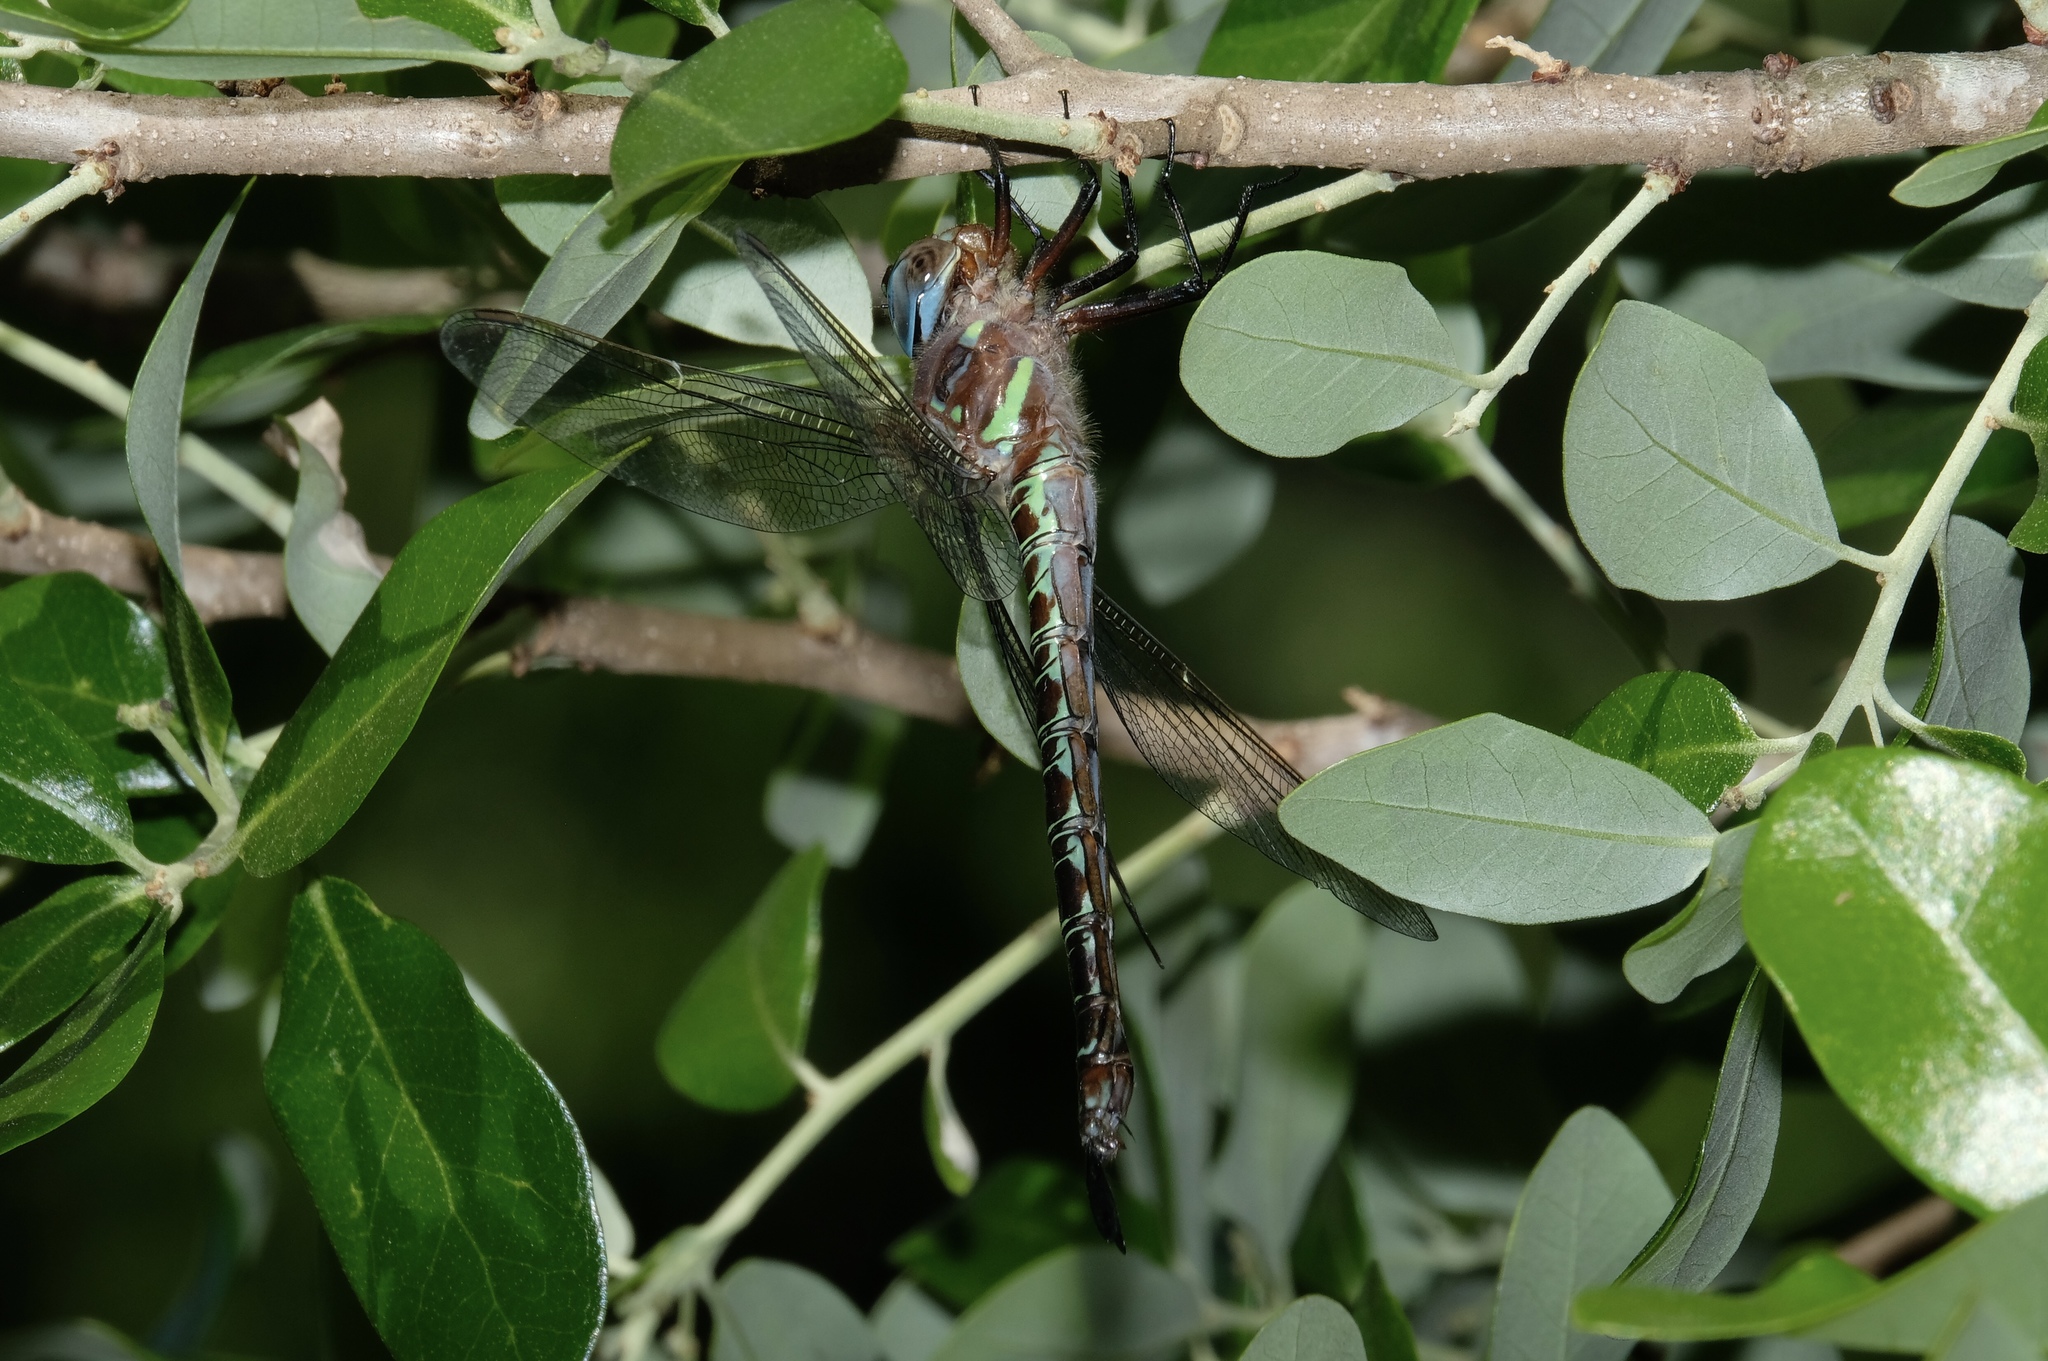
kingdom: Animalia
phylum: Arthropoda
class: Insecta
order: Odonata
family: Aeshnidae
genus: Epiaeschna
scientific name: Epiaeschna heros
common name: Swamp darner
